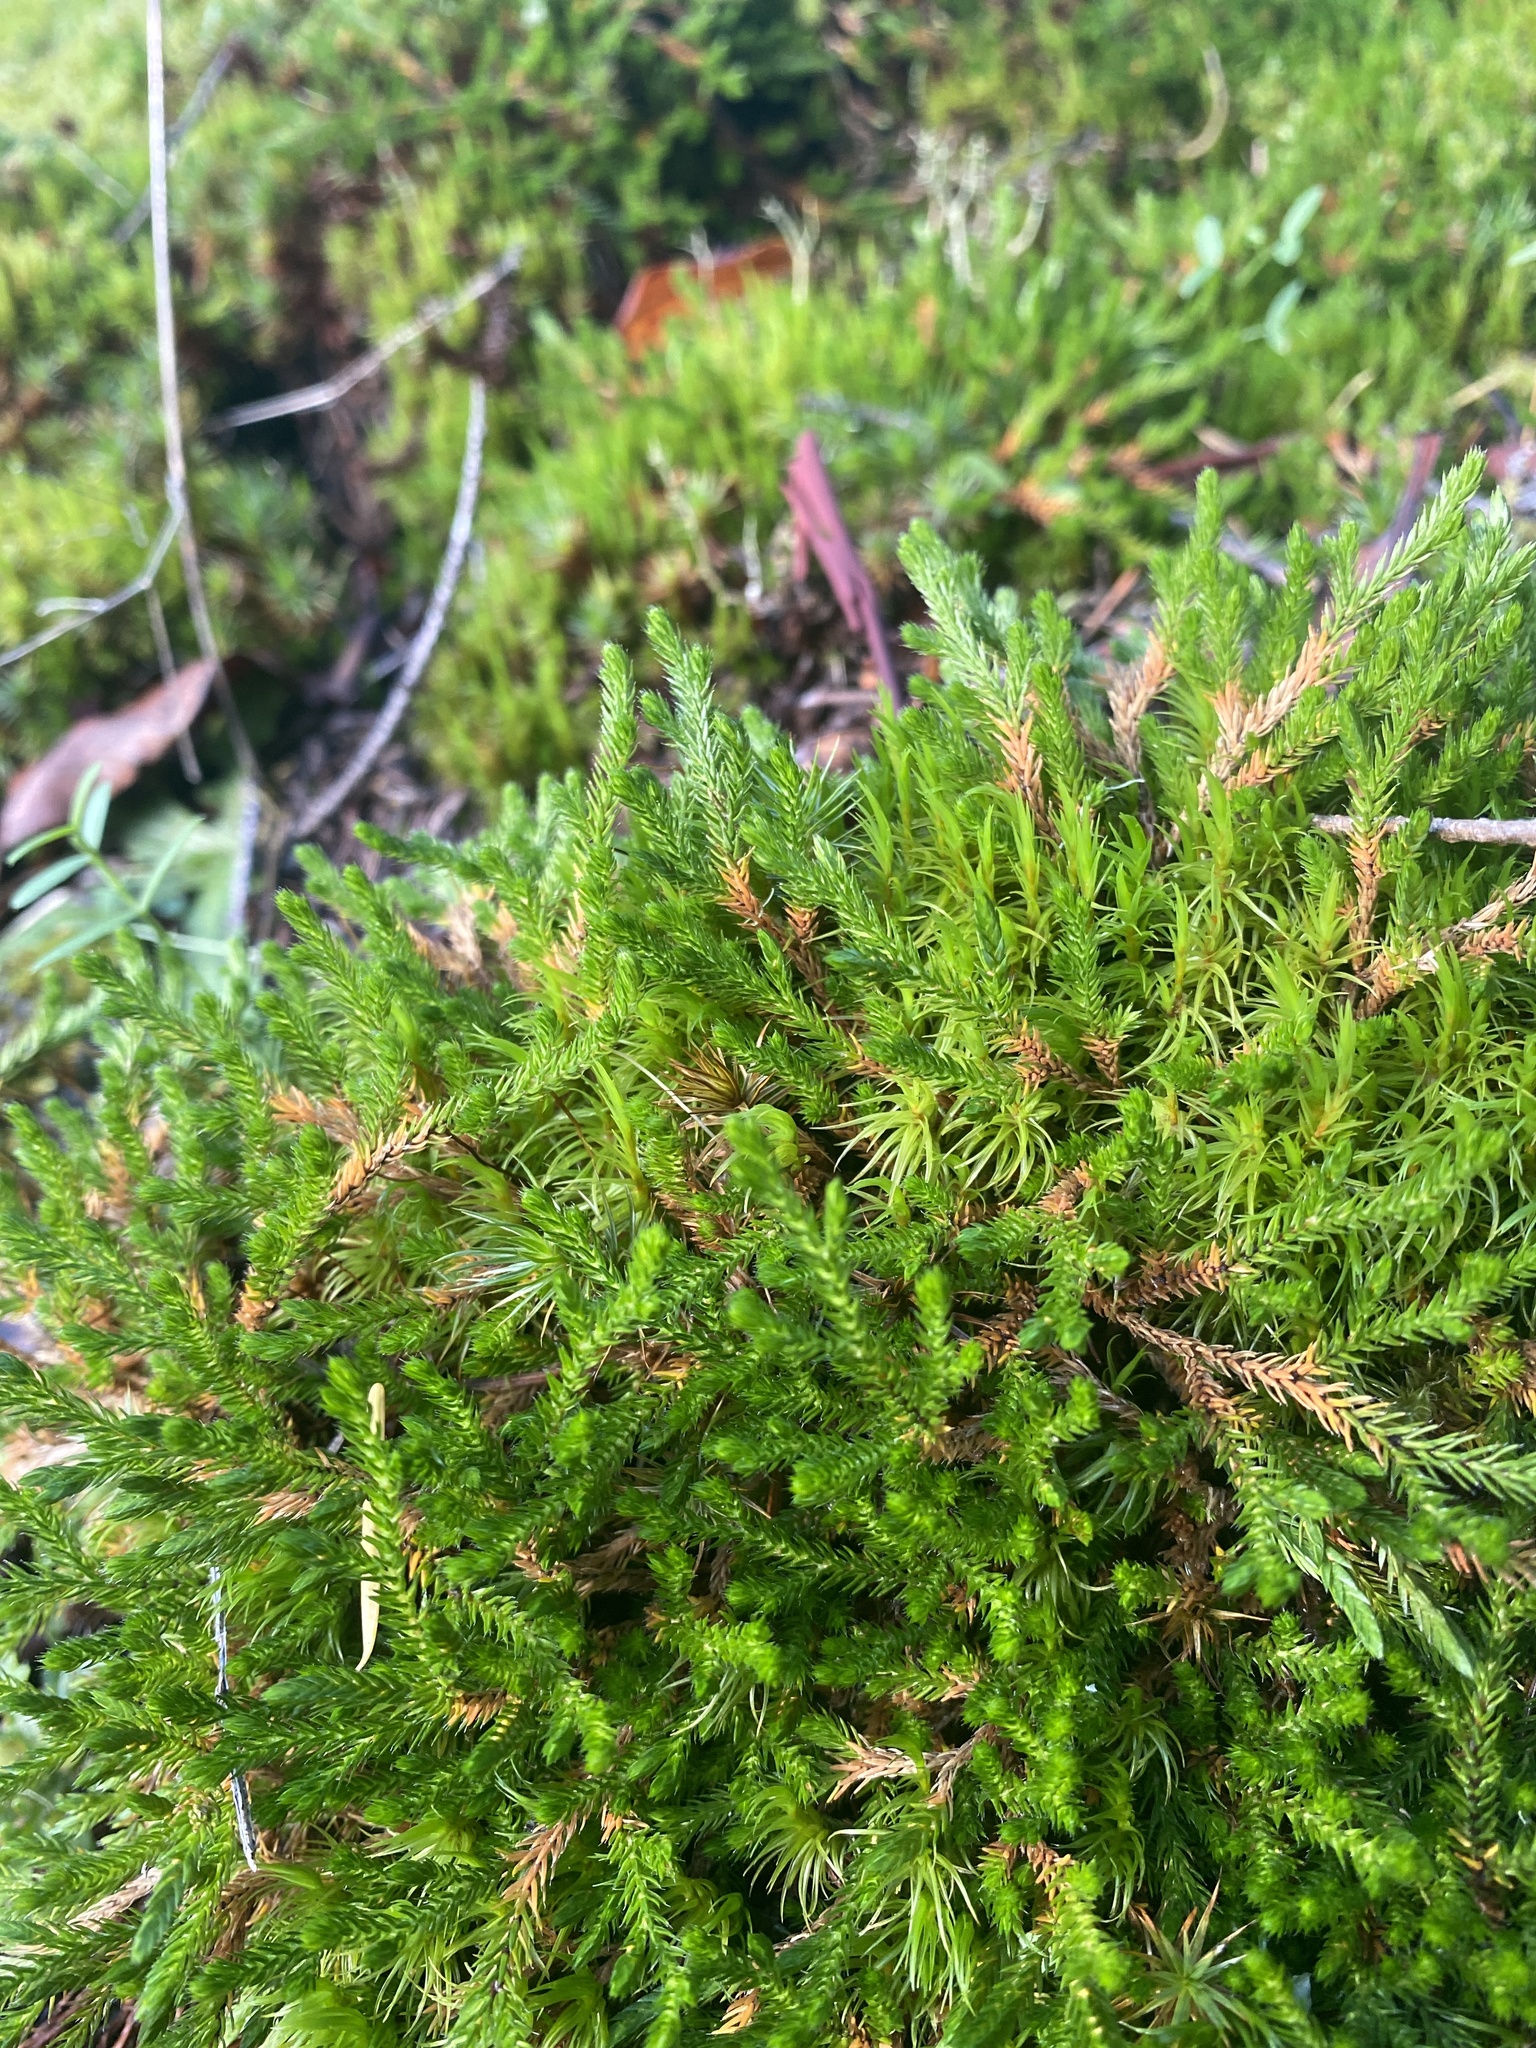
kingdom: Plantae
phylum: Tracheophyta
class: Lycopodiopsida
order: Selaginellales
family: Selaginellaceae
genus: Selaginella
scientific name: Selaginella wallacei
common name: Wallace's selaginella
